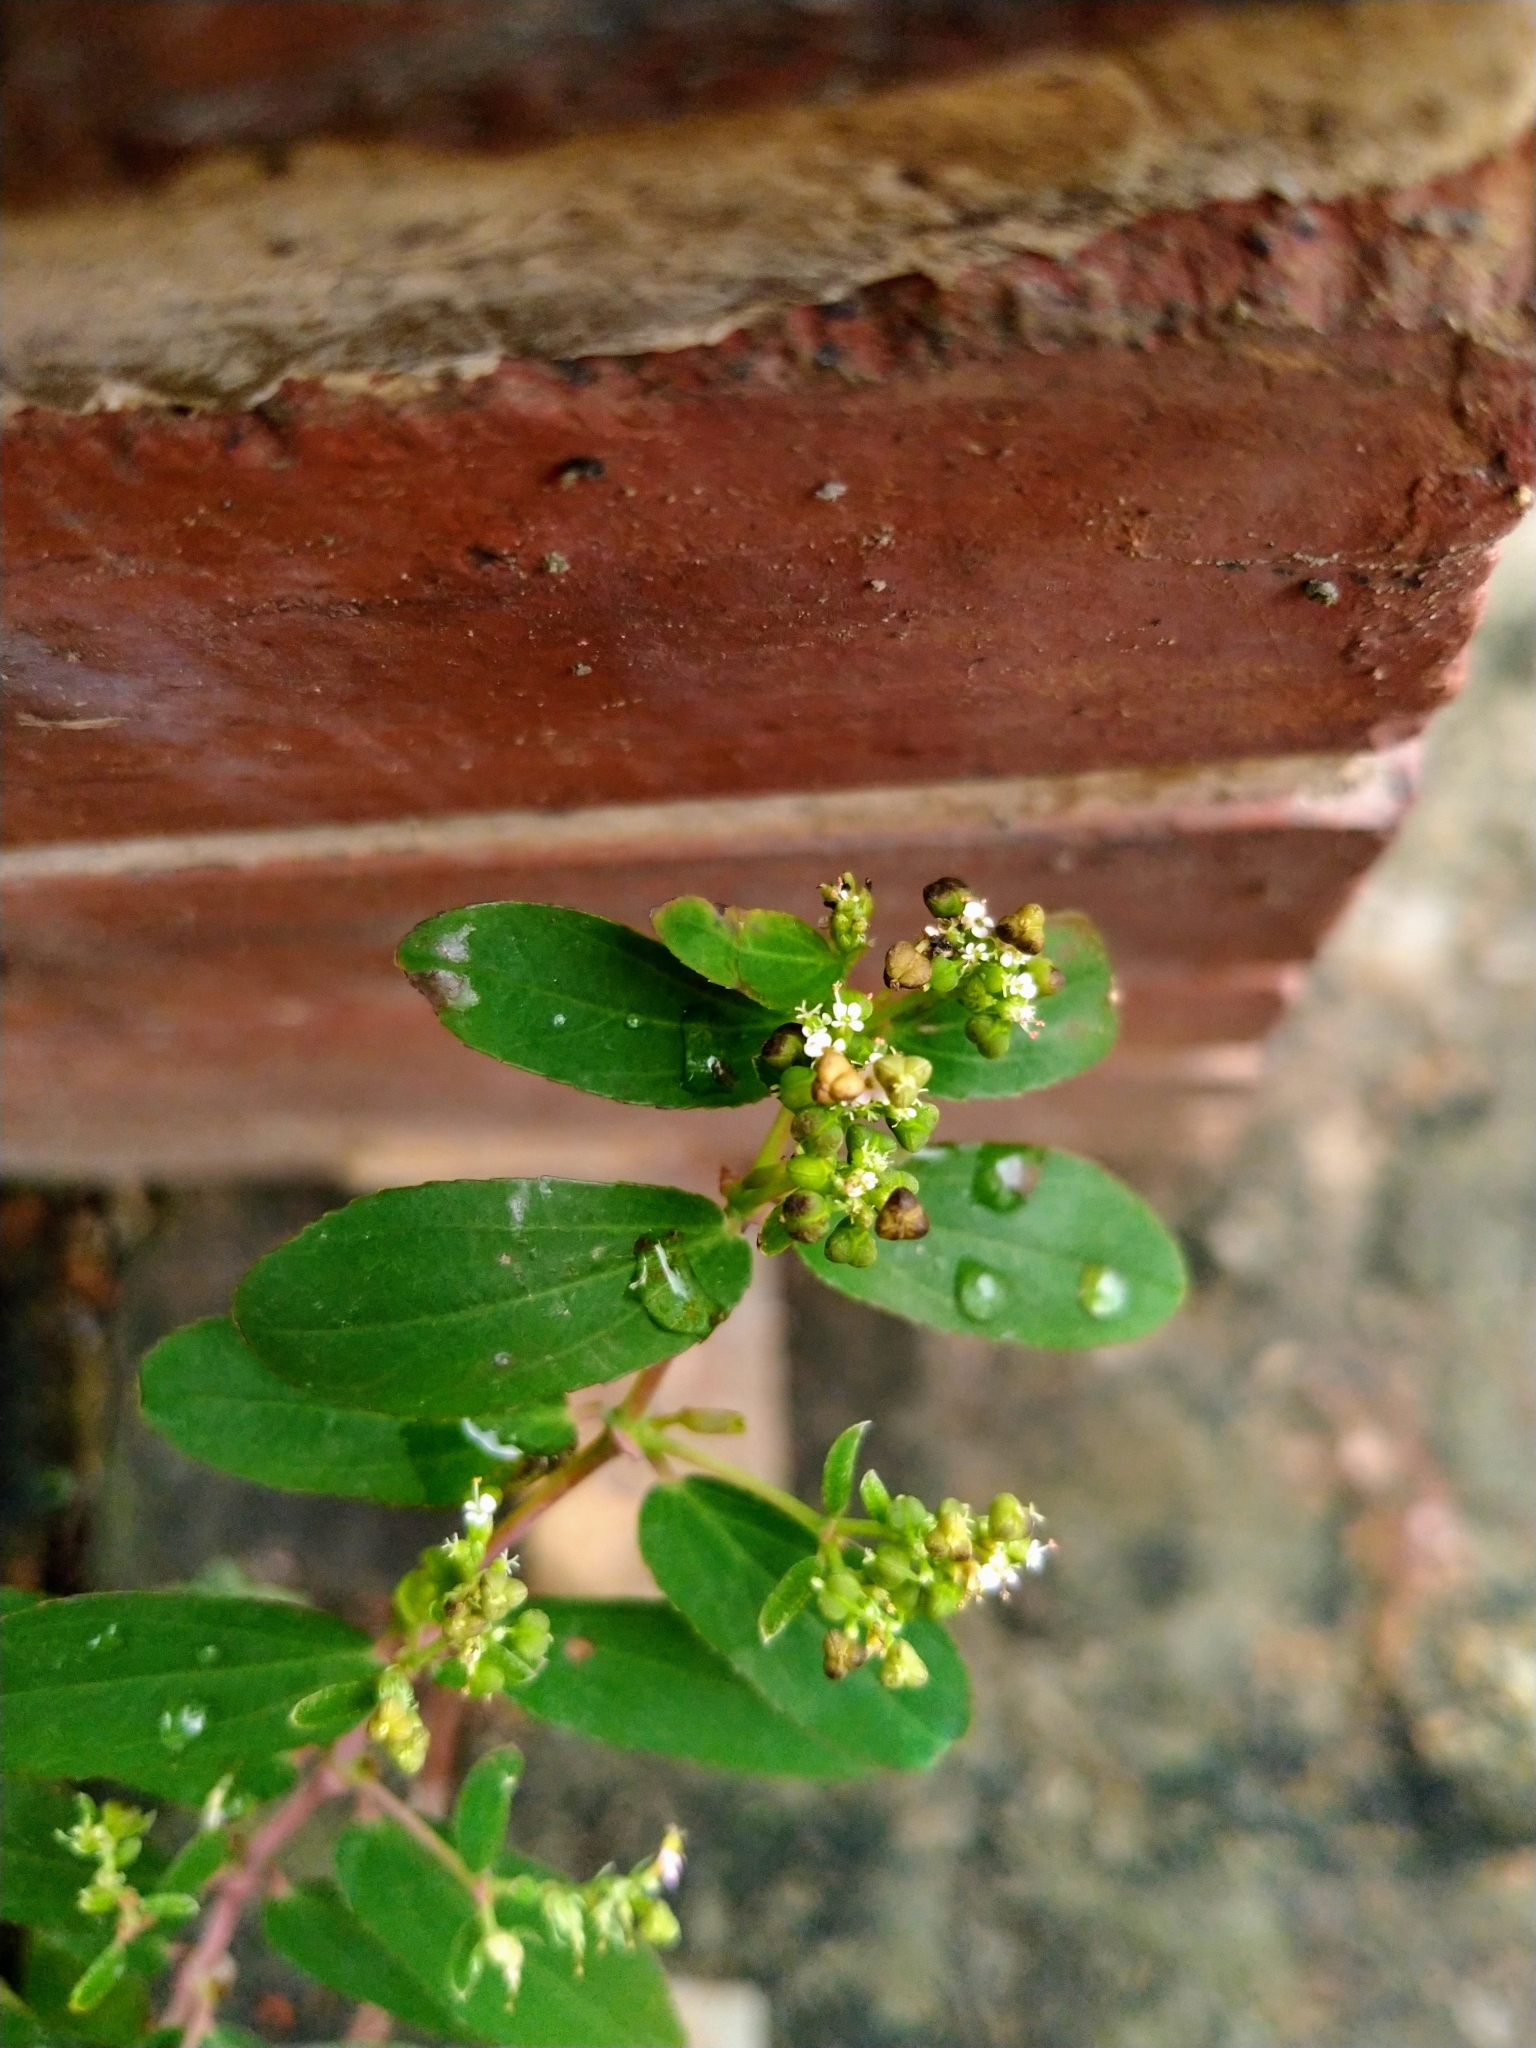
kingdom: Plantae
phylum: Tracheophyta
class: Magnoliopsida
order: Malpighiales
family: Euphorbiaceae
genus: Euphorbia
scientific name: Euphorbia hypericifolia
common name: Graceful sandmat
